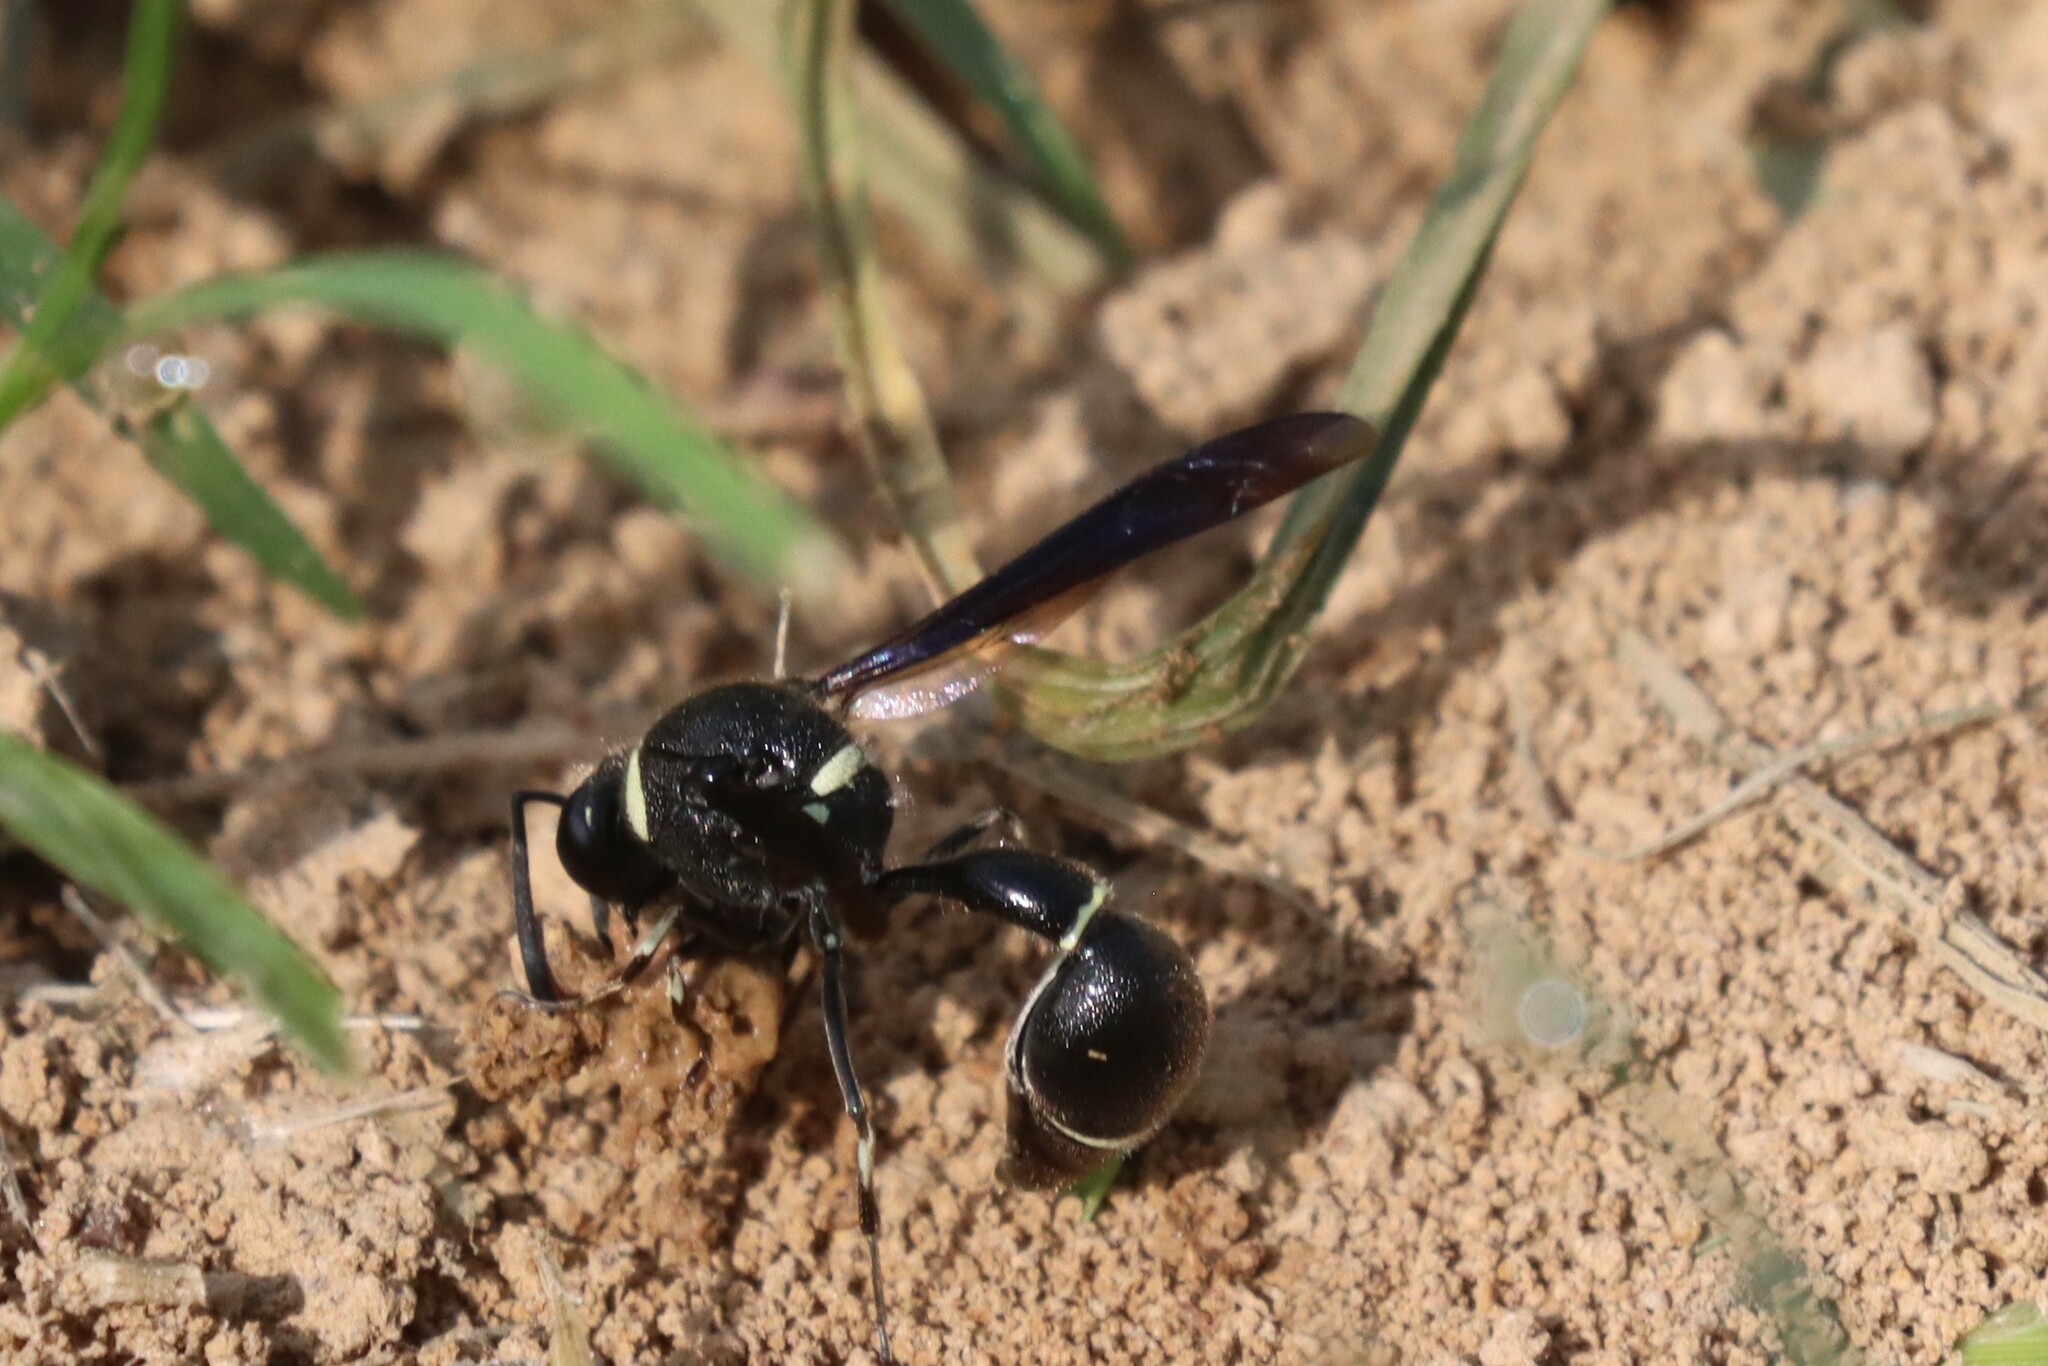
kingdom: Animalia
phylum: Arthropoda
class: Insecta
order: Hymenoptera
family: Vespidae
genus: Eumenes
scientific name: Eumenes fraternus
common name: Fraternal potter wasp
